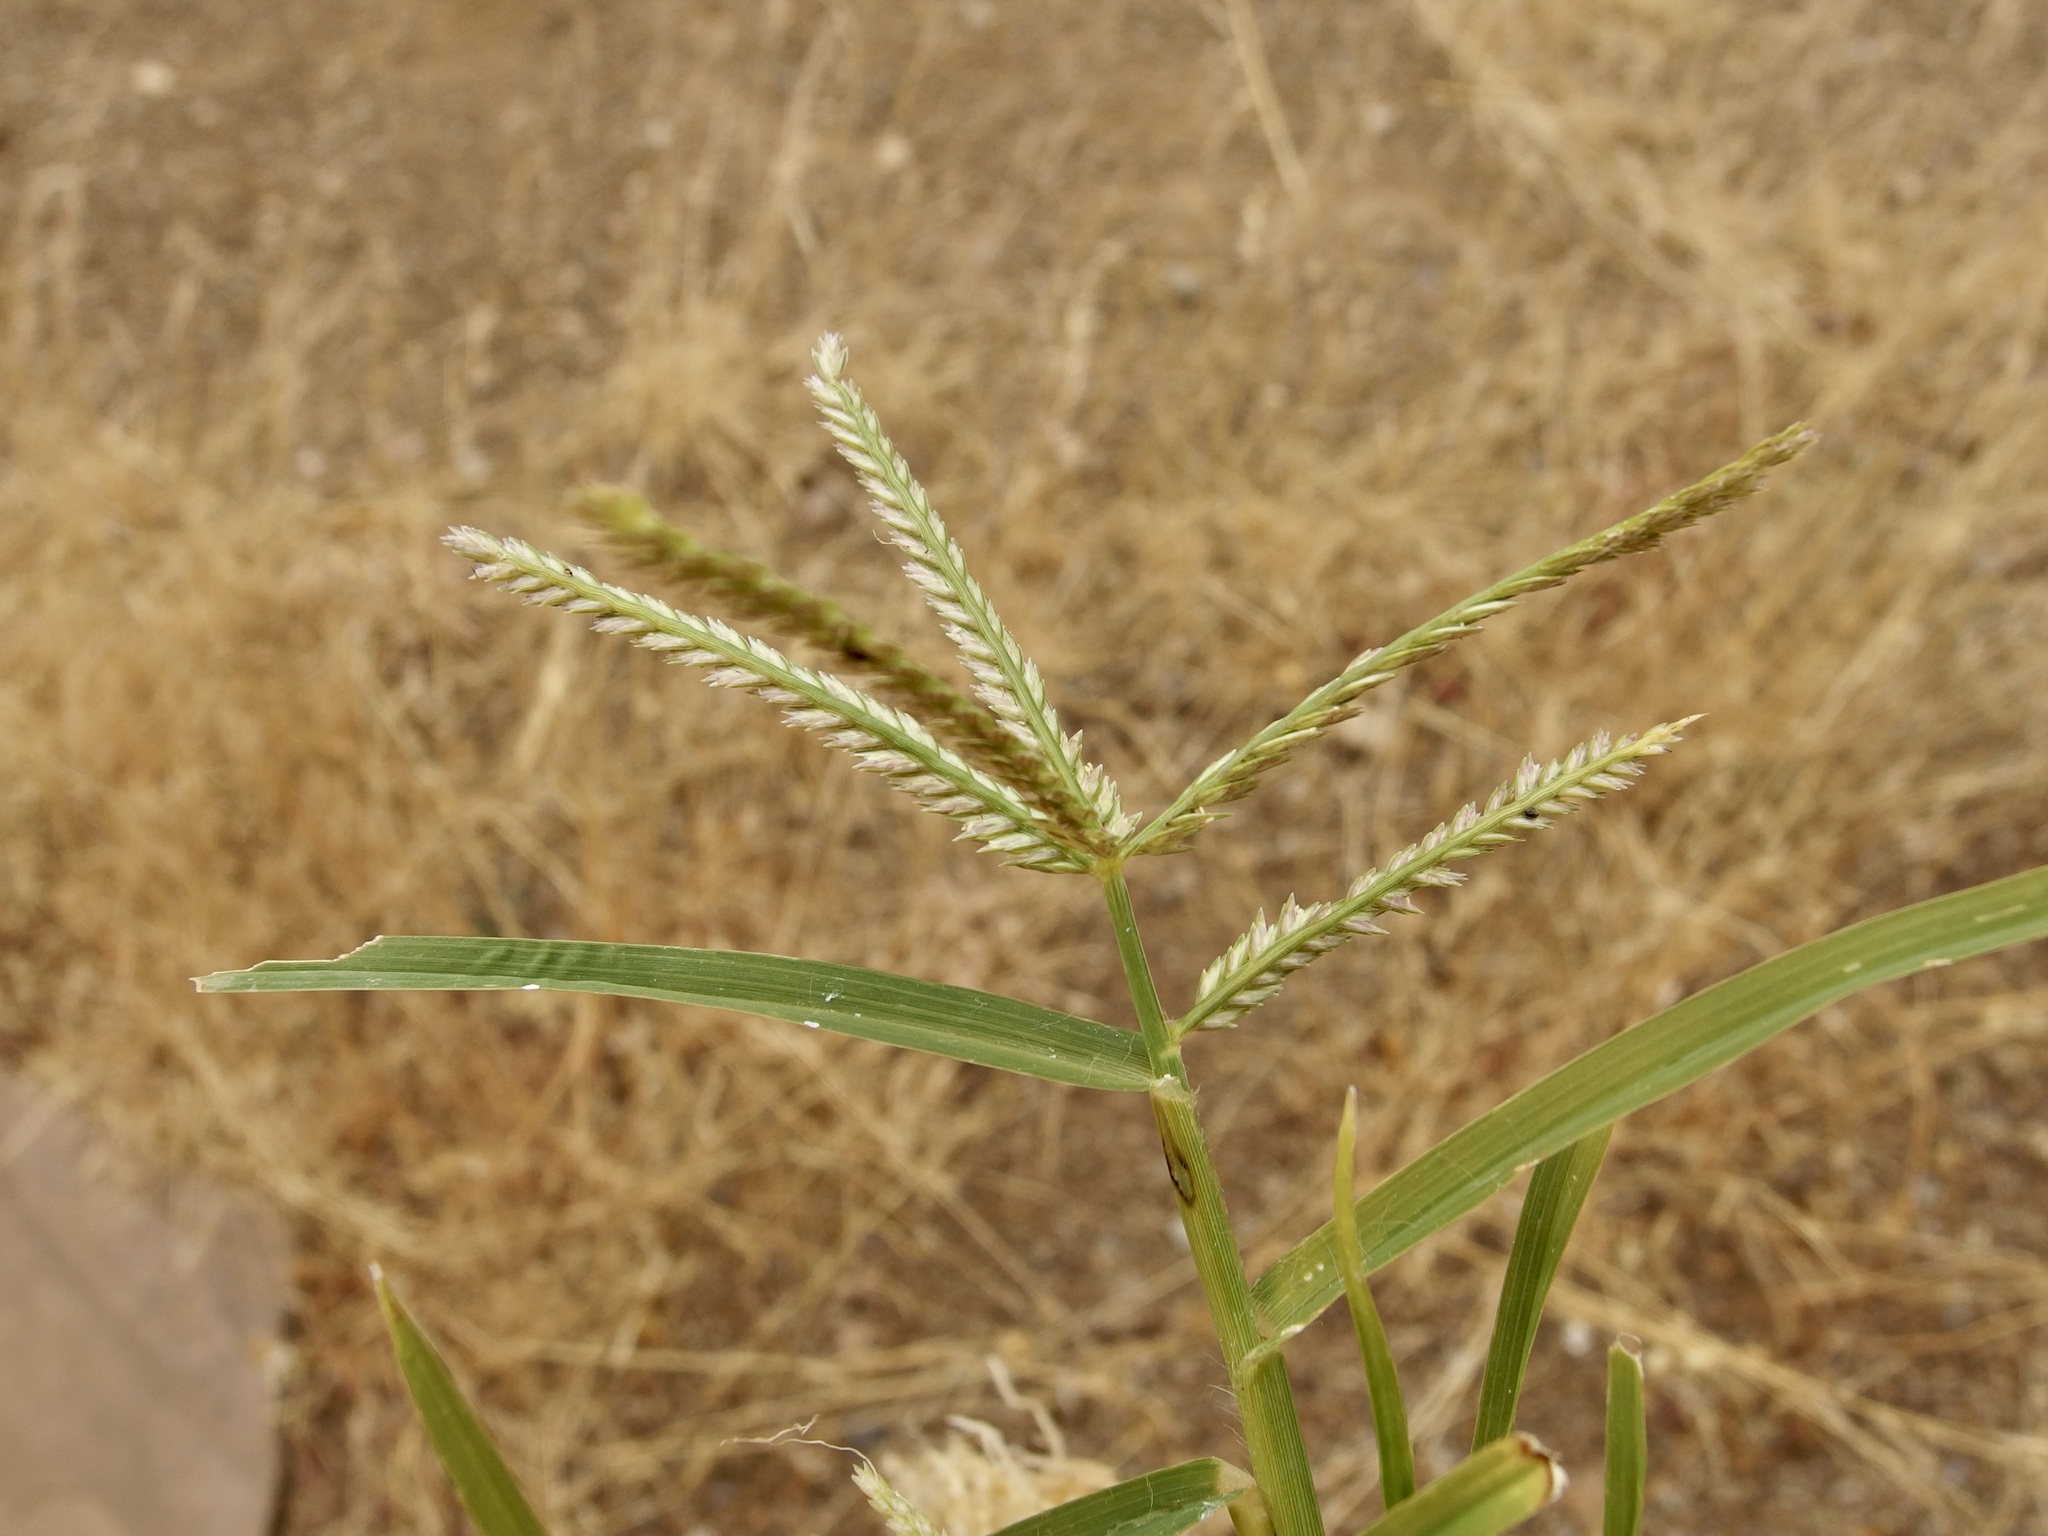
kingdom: Plantae
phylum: Tracheophyta
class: Liliopsida
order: Poales
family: Poaceae
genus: Eleusine
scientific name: Eleusine indica
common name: Yard-grass
